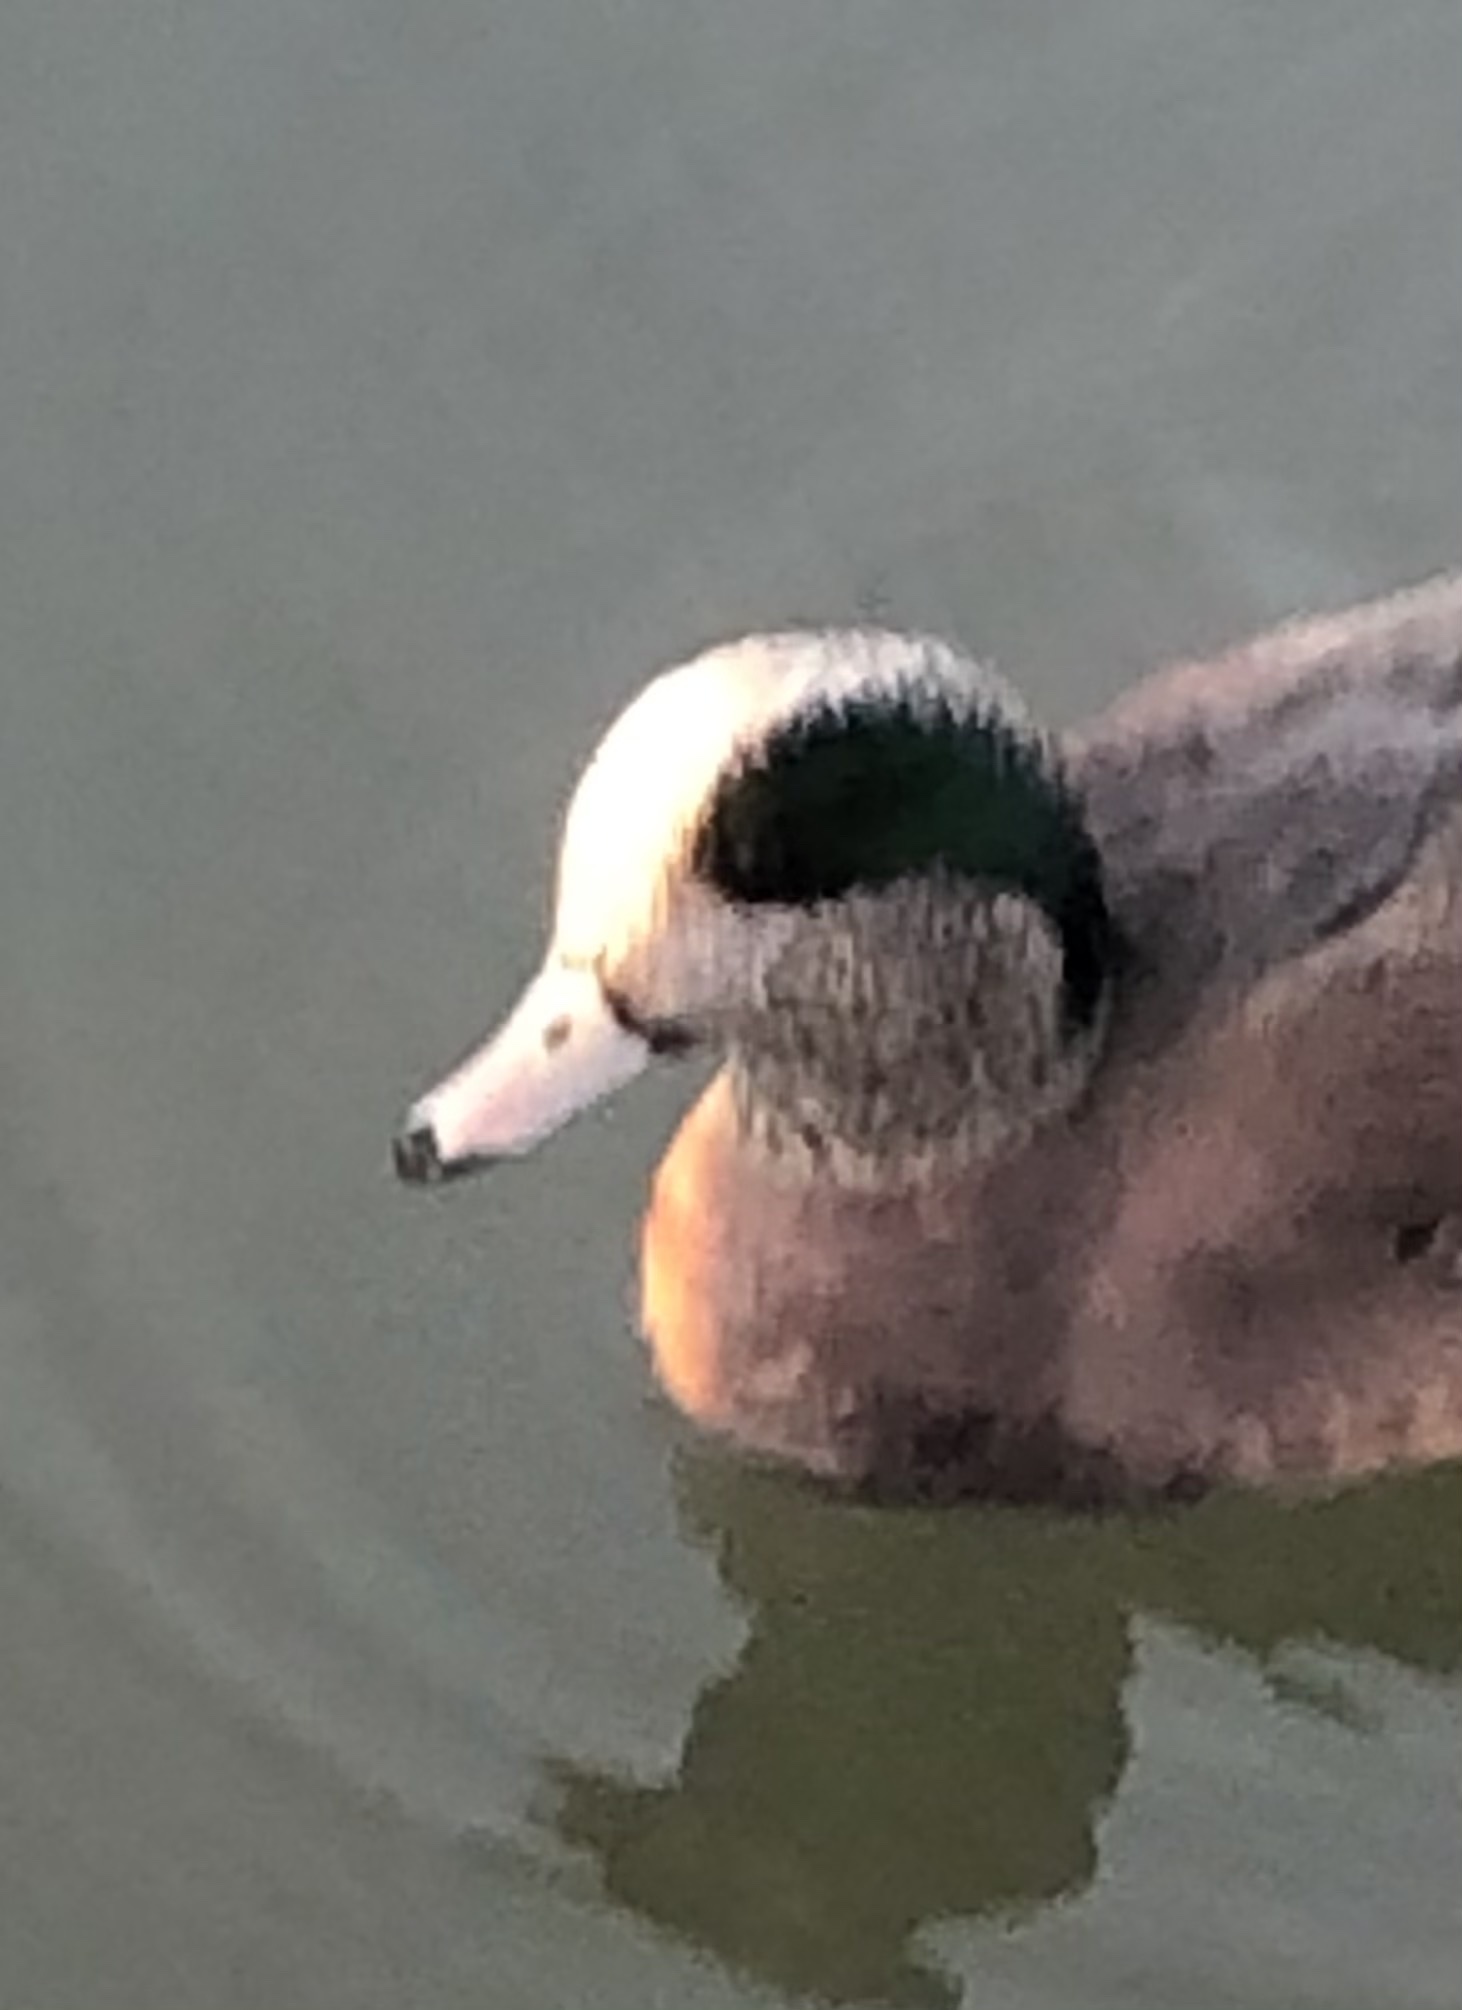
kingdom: Animalia
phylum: Chordata
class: Aves
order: Anseriformes
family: Anatidae
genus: Mareca
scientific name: Mareca americana
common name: American wigeon
